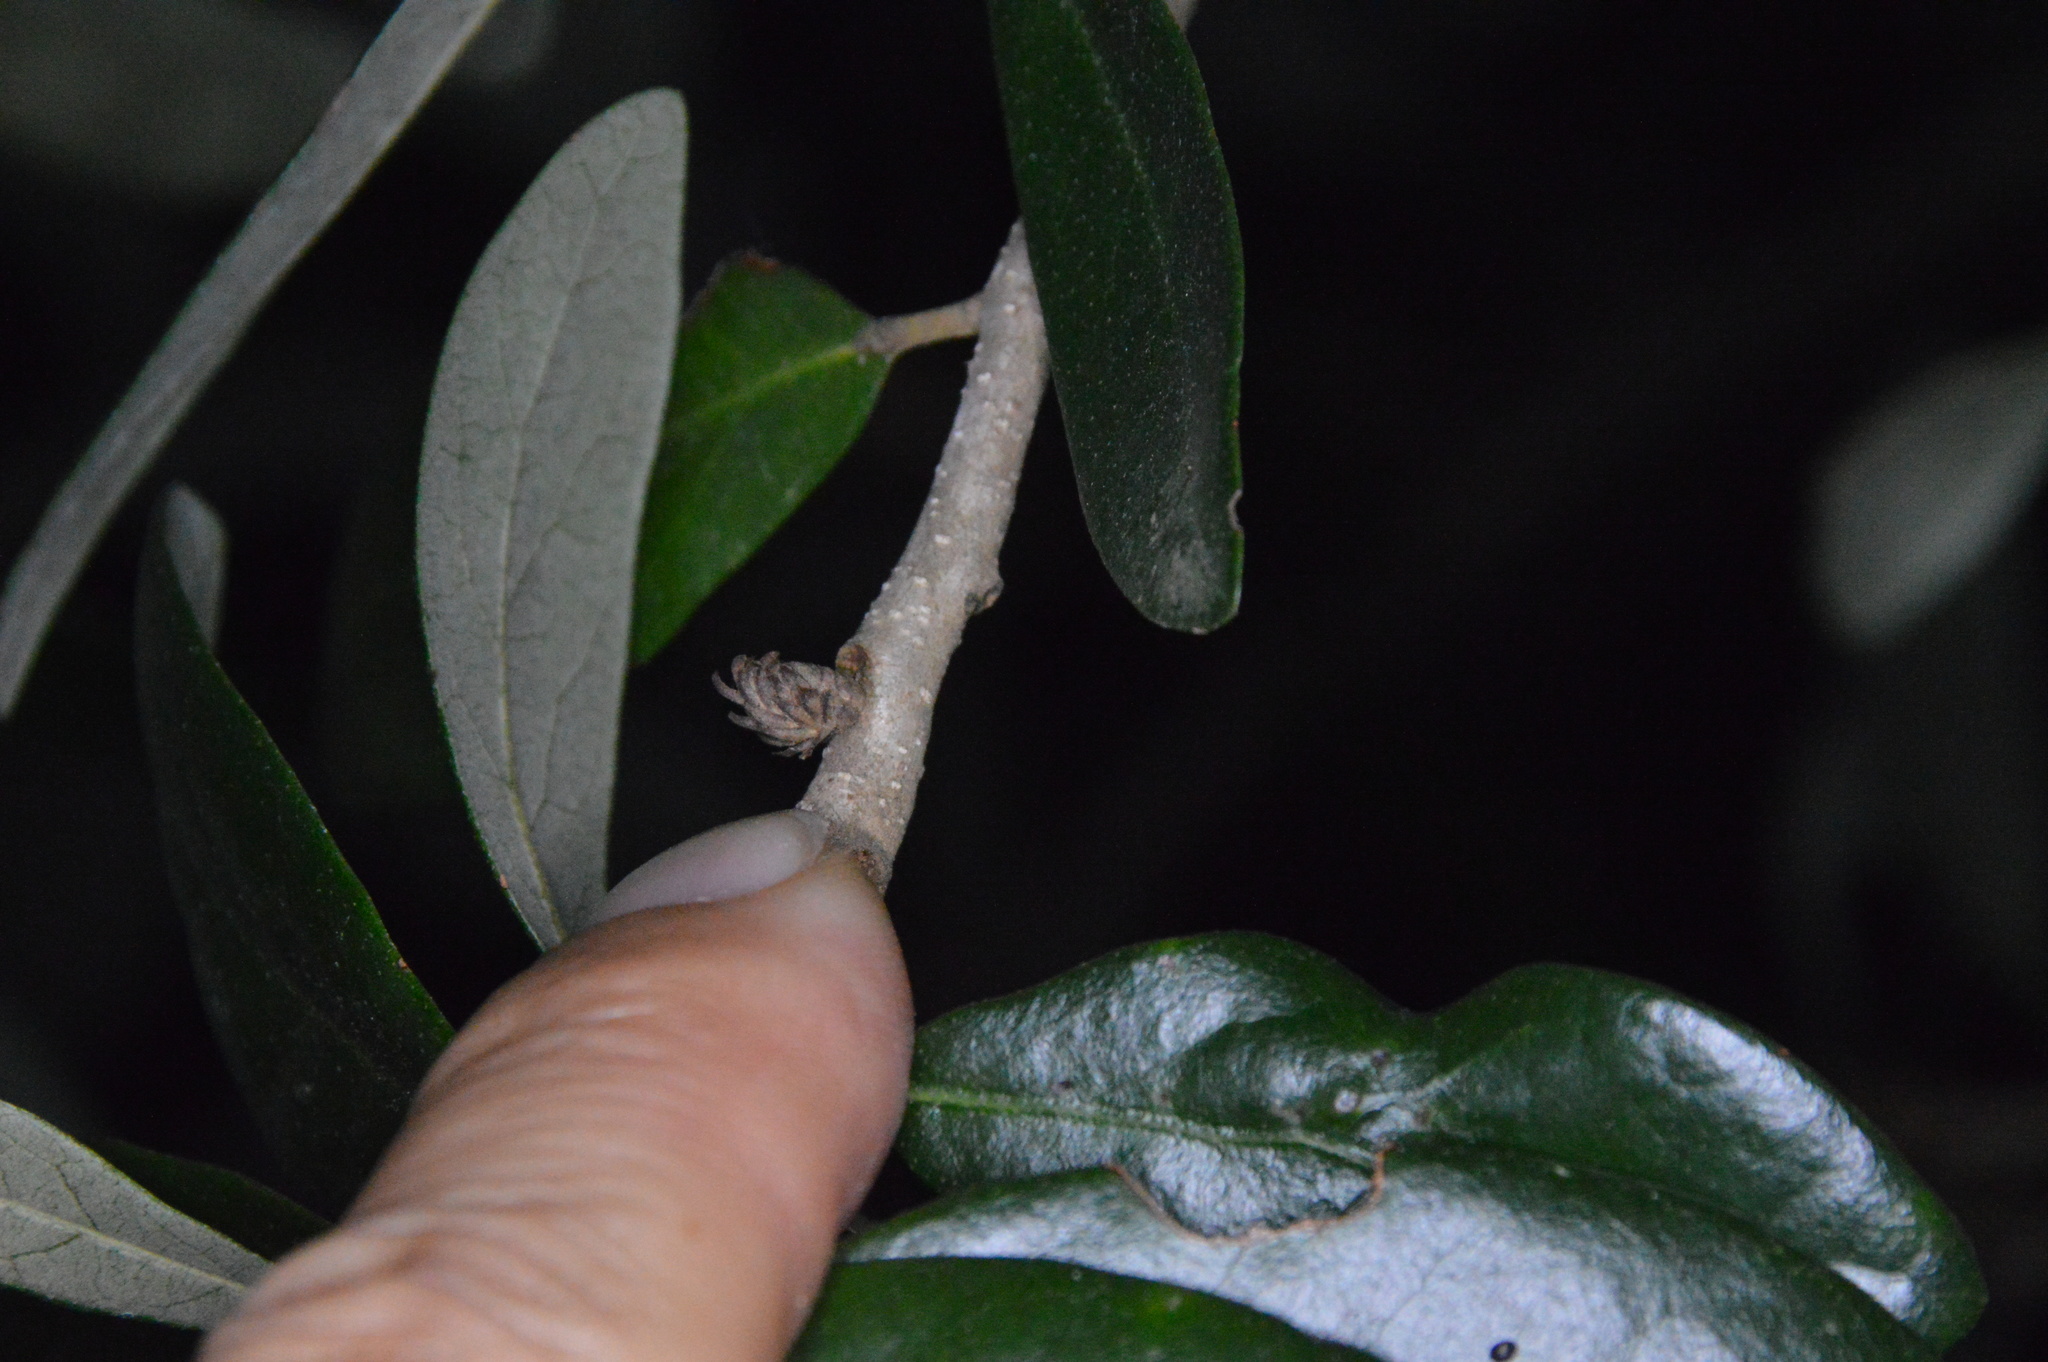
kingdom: Animalia
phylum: Arthropoda
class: Insecta
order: Hymenoptera
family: Cynipidae
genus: Andricus
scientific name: Andricus quercusfoliatus
